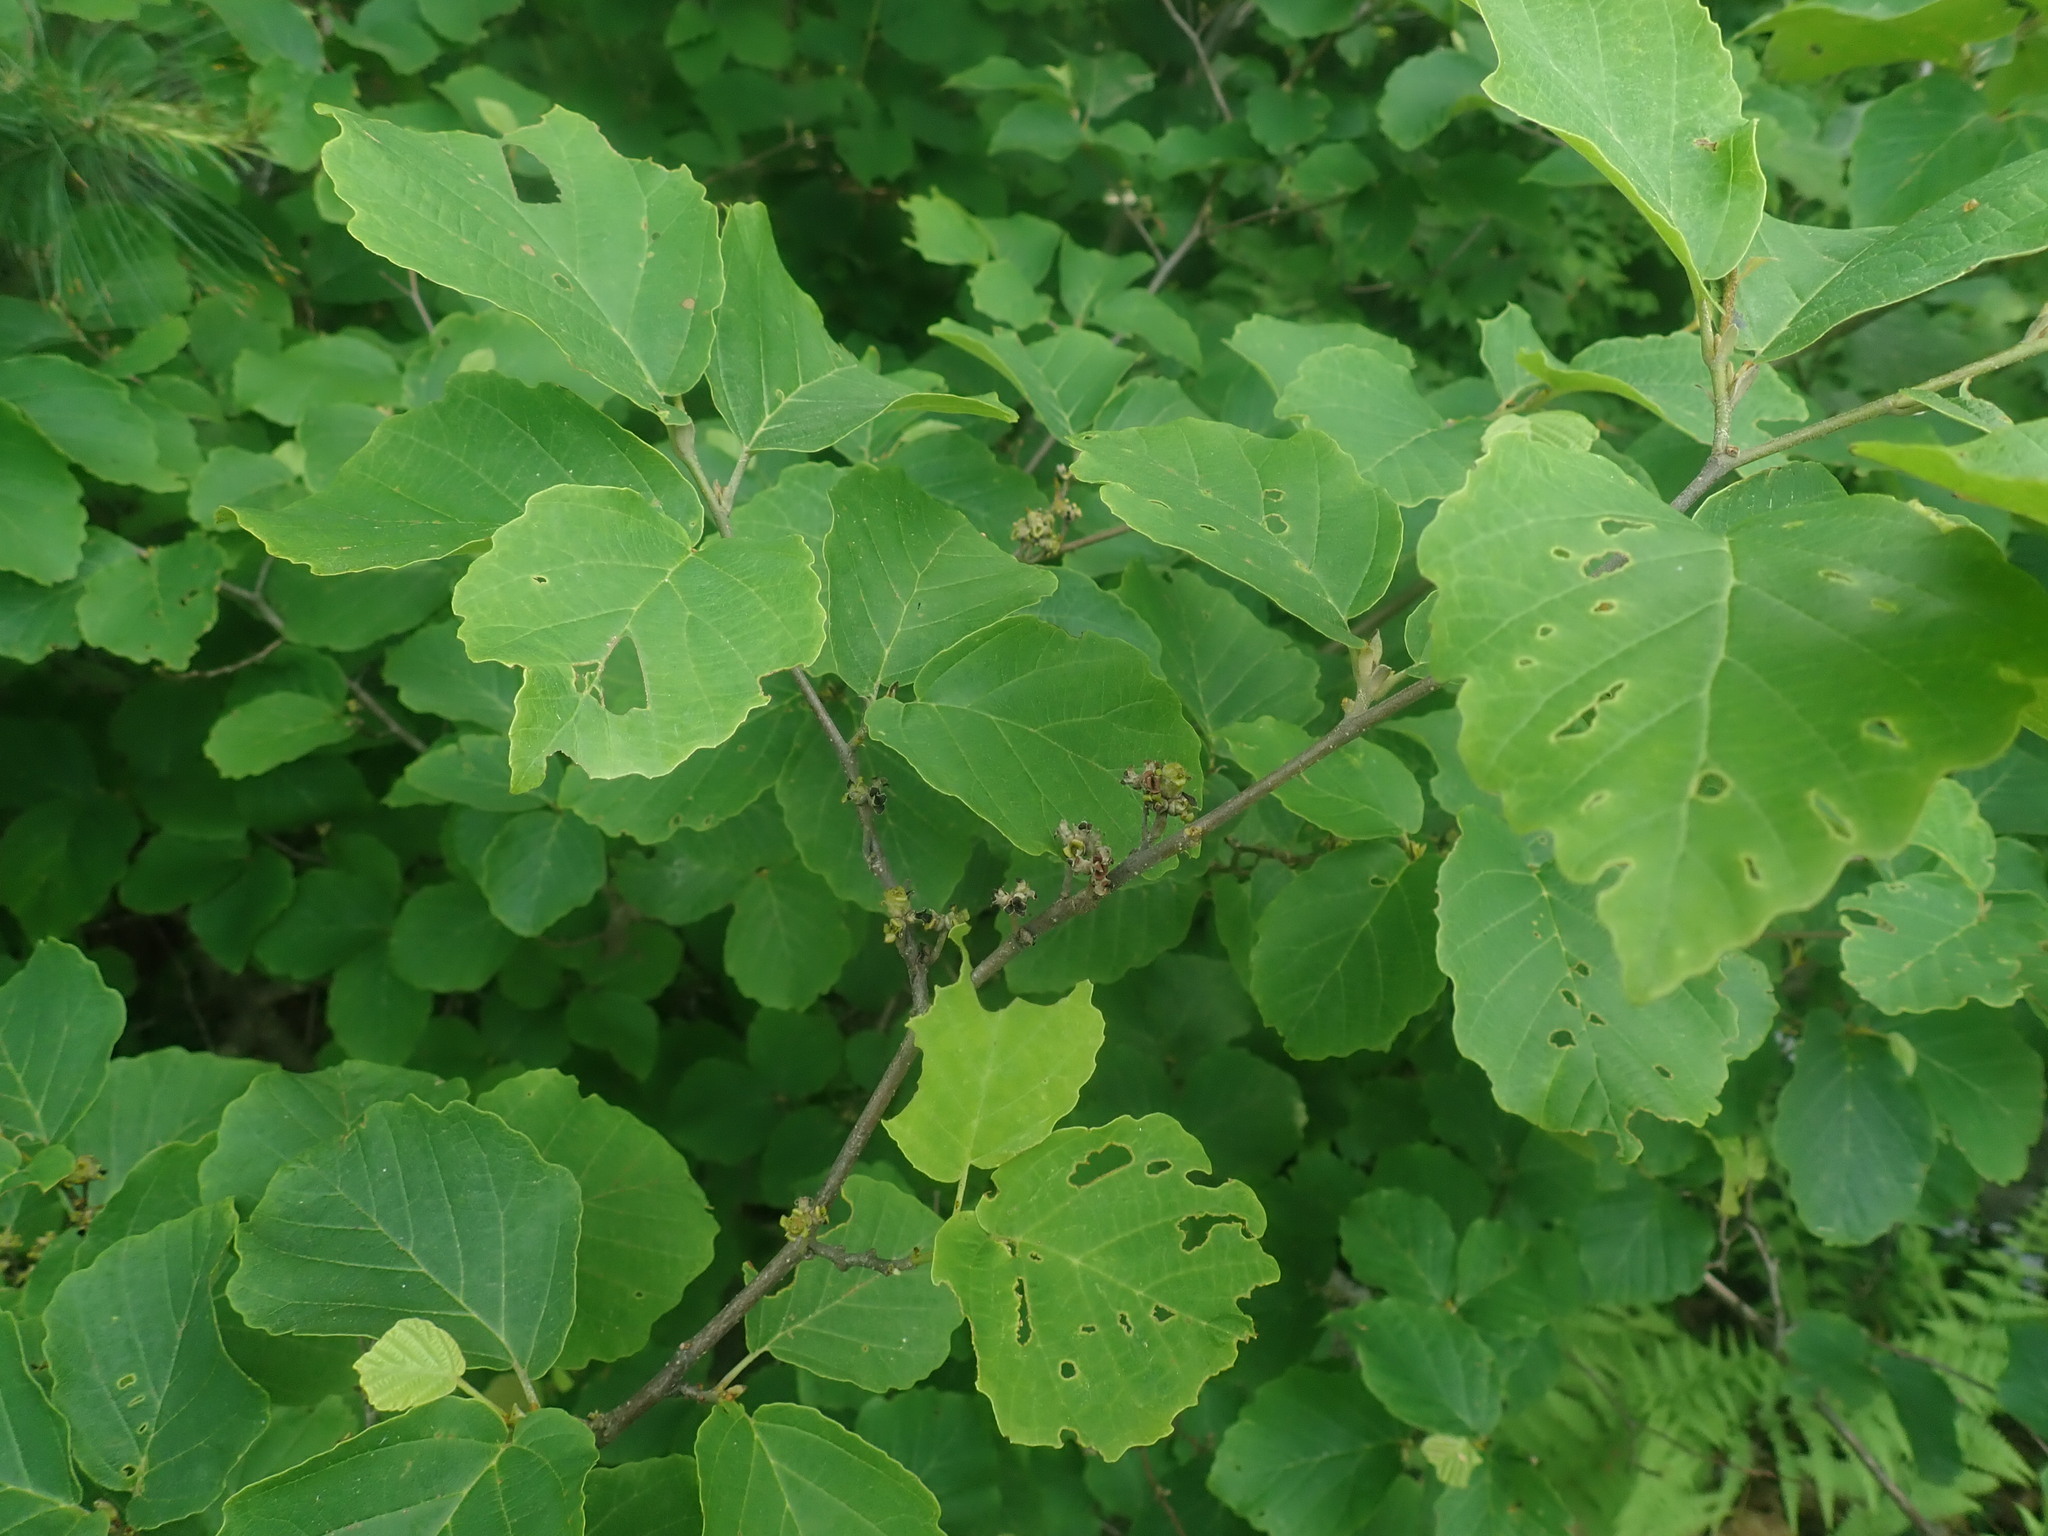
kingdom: Plantae
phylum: Tracheophyta
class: Magnoliopsida
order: Saxifragales
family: Hamamelidaceae
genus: Hamamelis
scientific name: Hamamelis virginiana
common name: Witch-hazel
